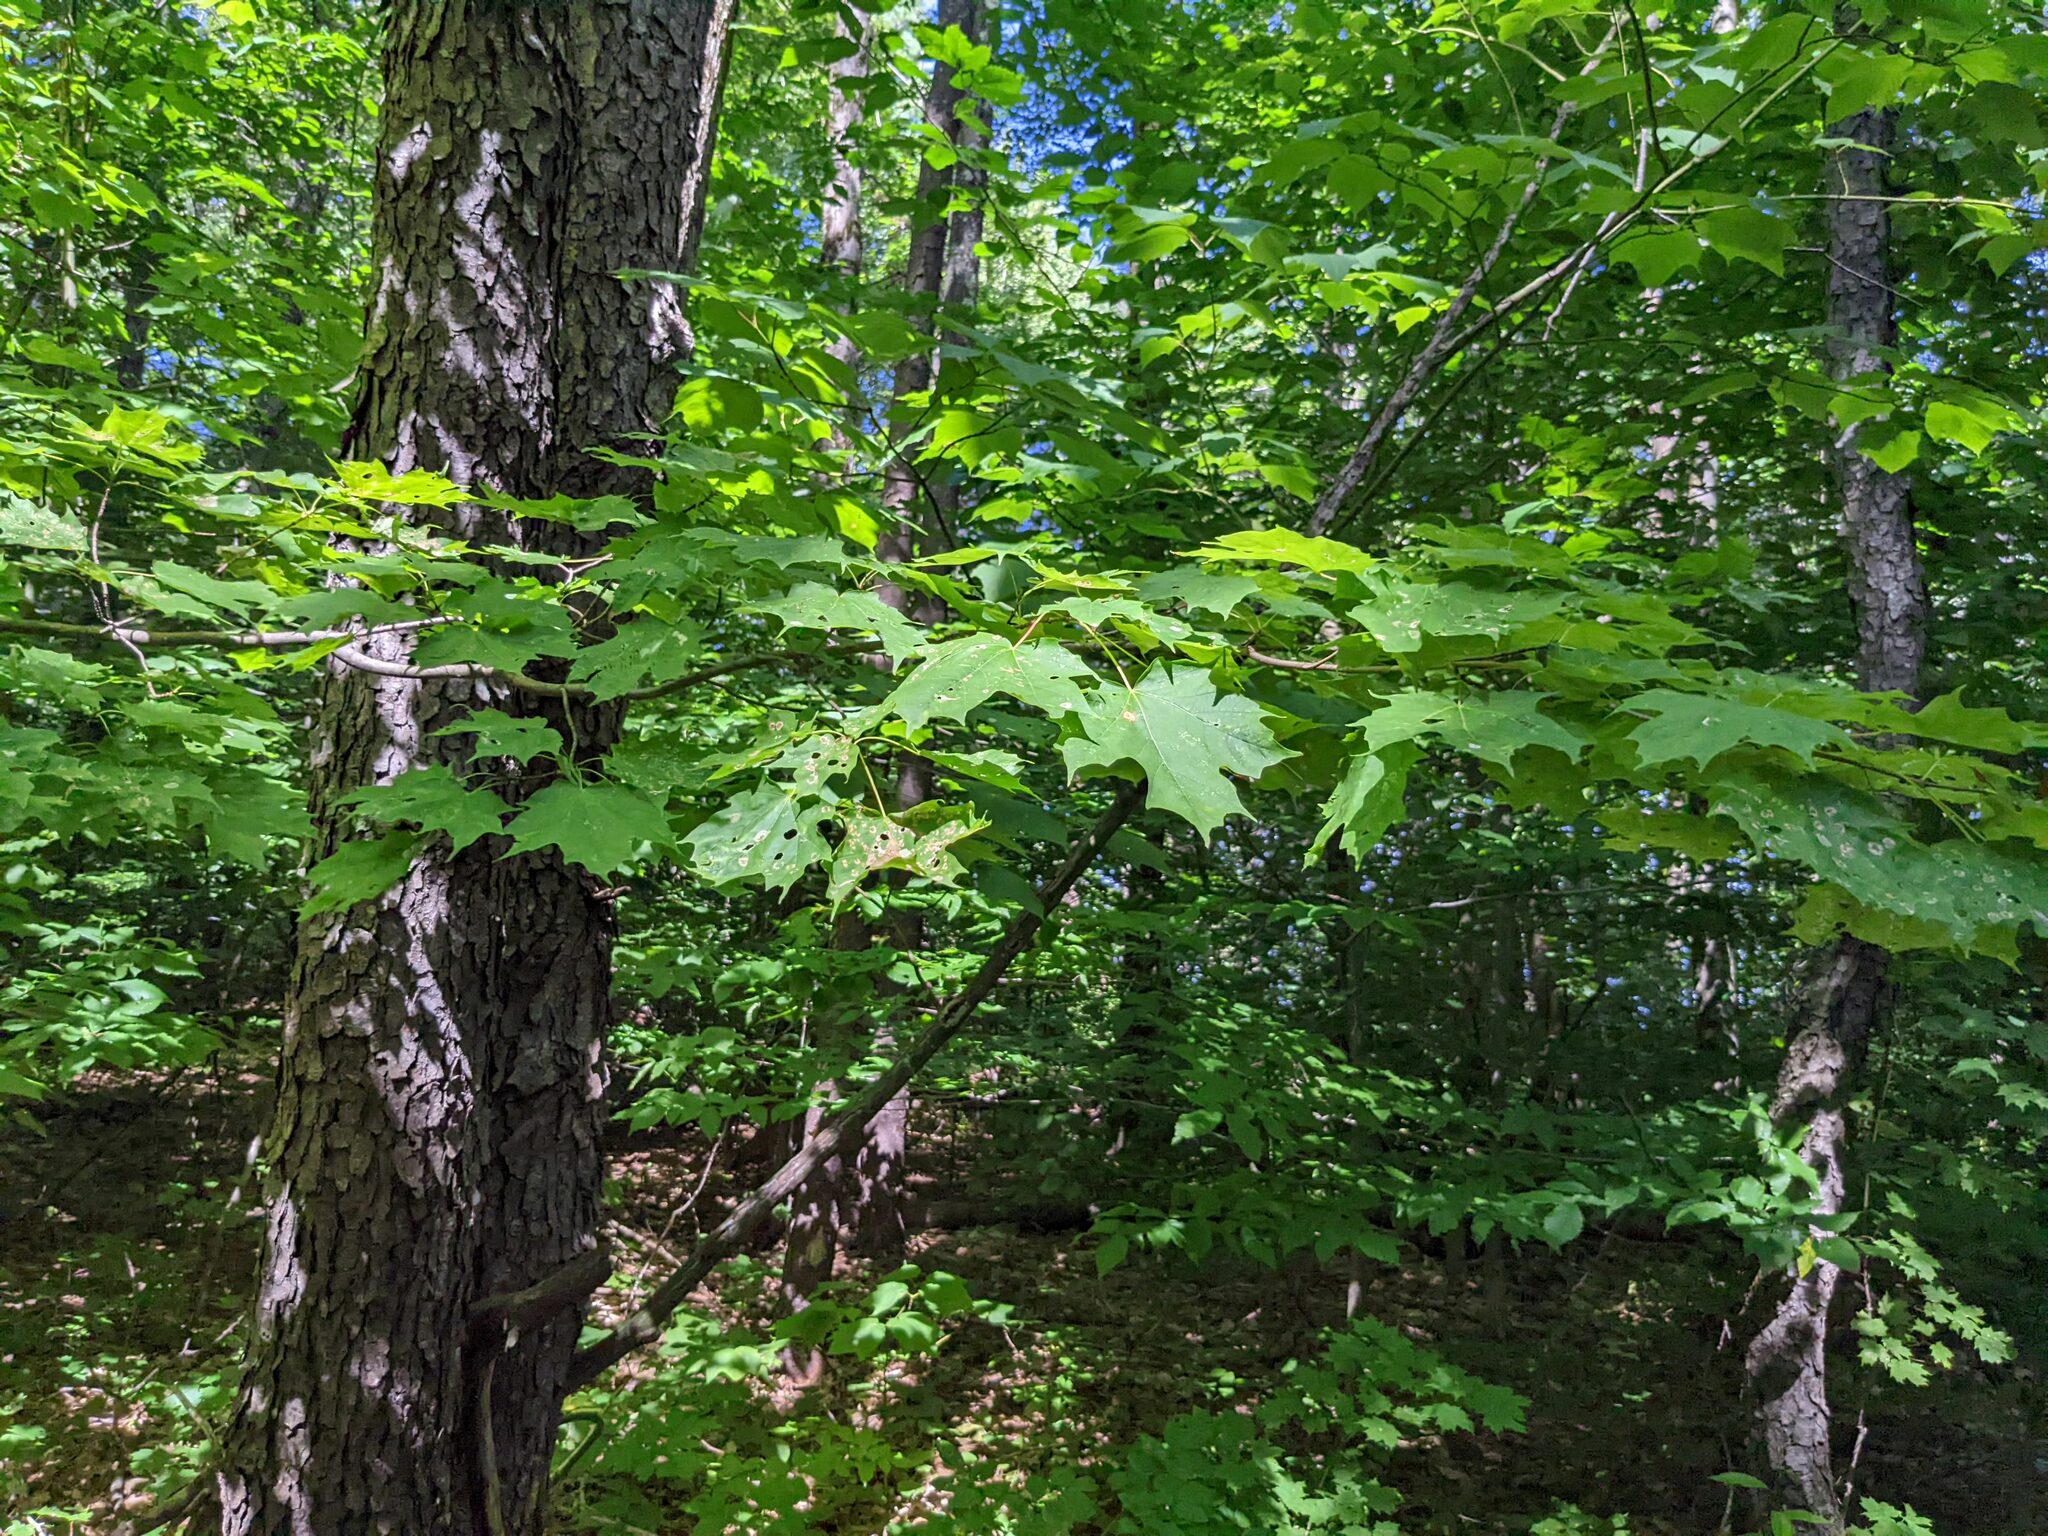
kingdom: Plantae
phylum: Tracheophyta
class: Magnoliopsida
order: Sapindales
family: Sapindaceae
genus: Acer
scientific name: Acer saccharum
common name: Sugar maple
